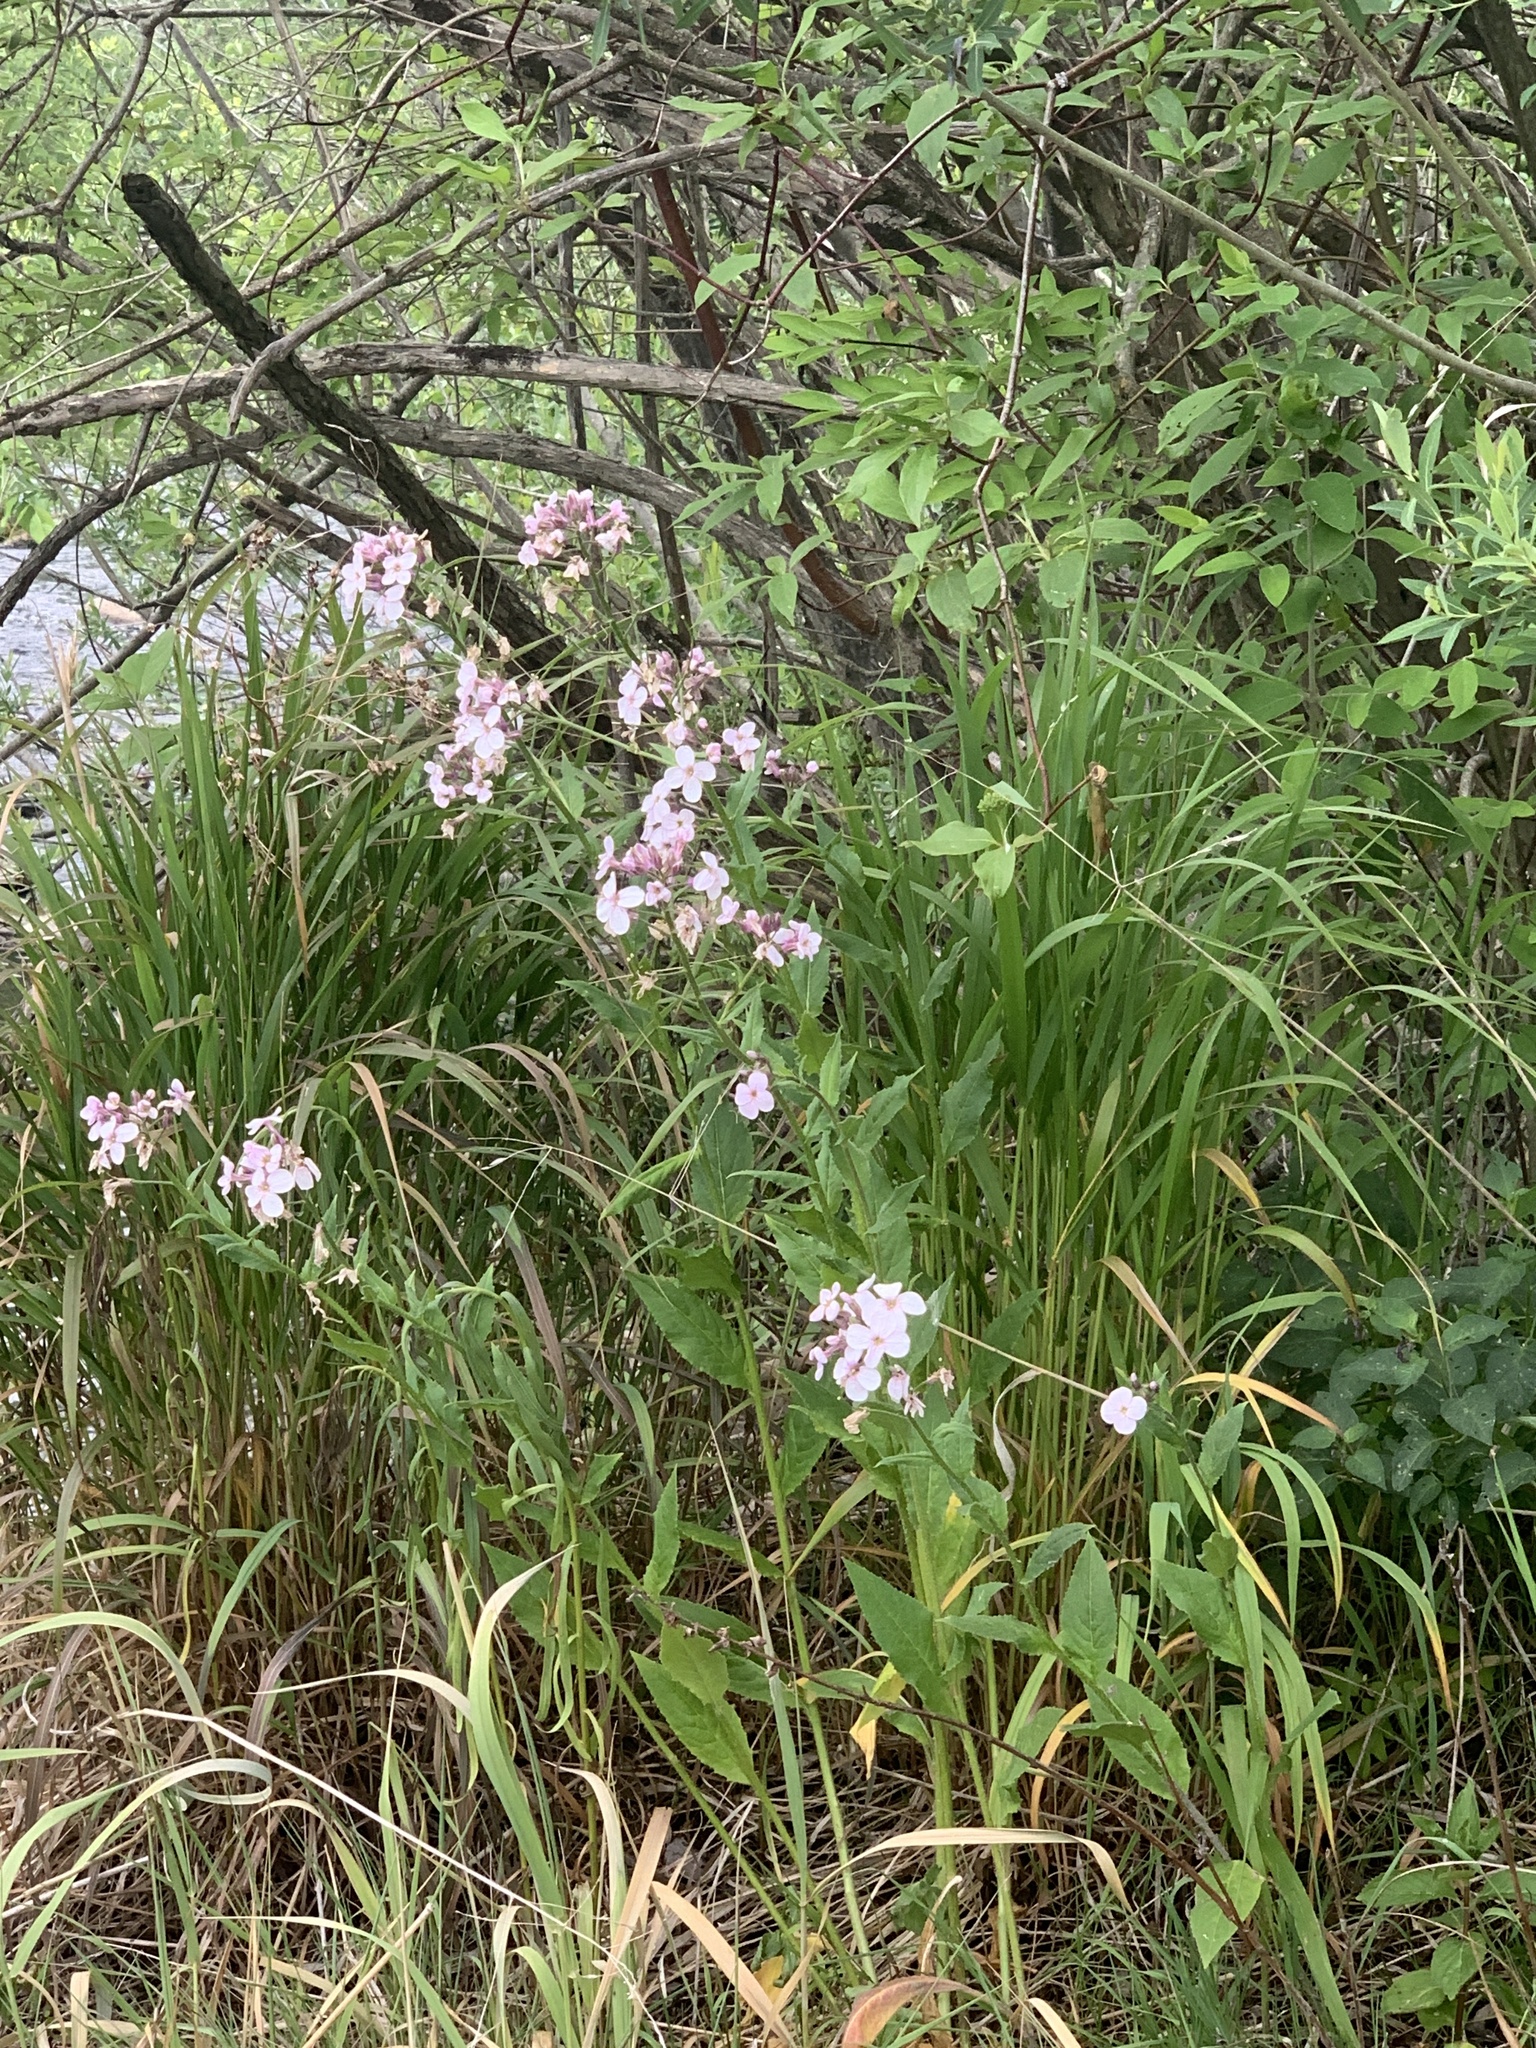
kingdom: Plantae
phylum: Tracheophyta
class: Magnoliopsida
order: Brassicales
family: Brassicaceae
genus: Hesperis
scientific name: Hesperis matronalis
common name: Dame's-violet
